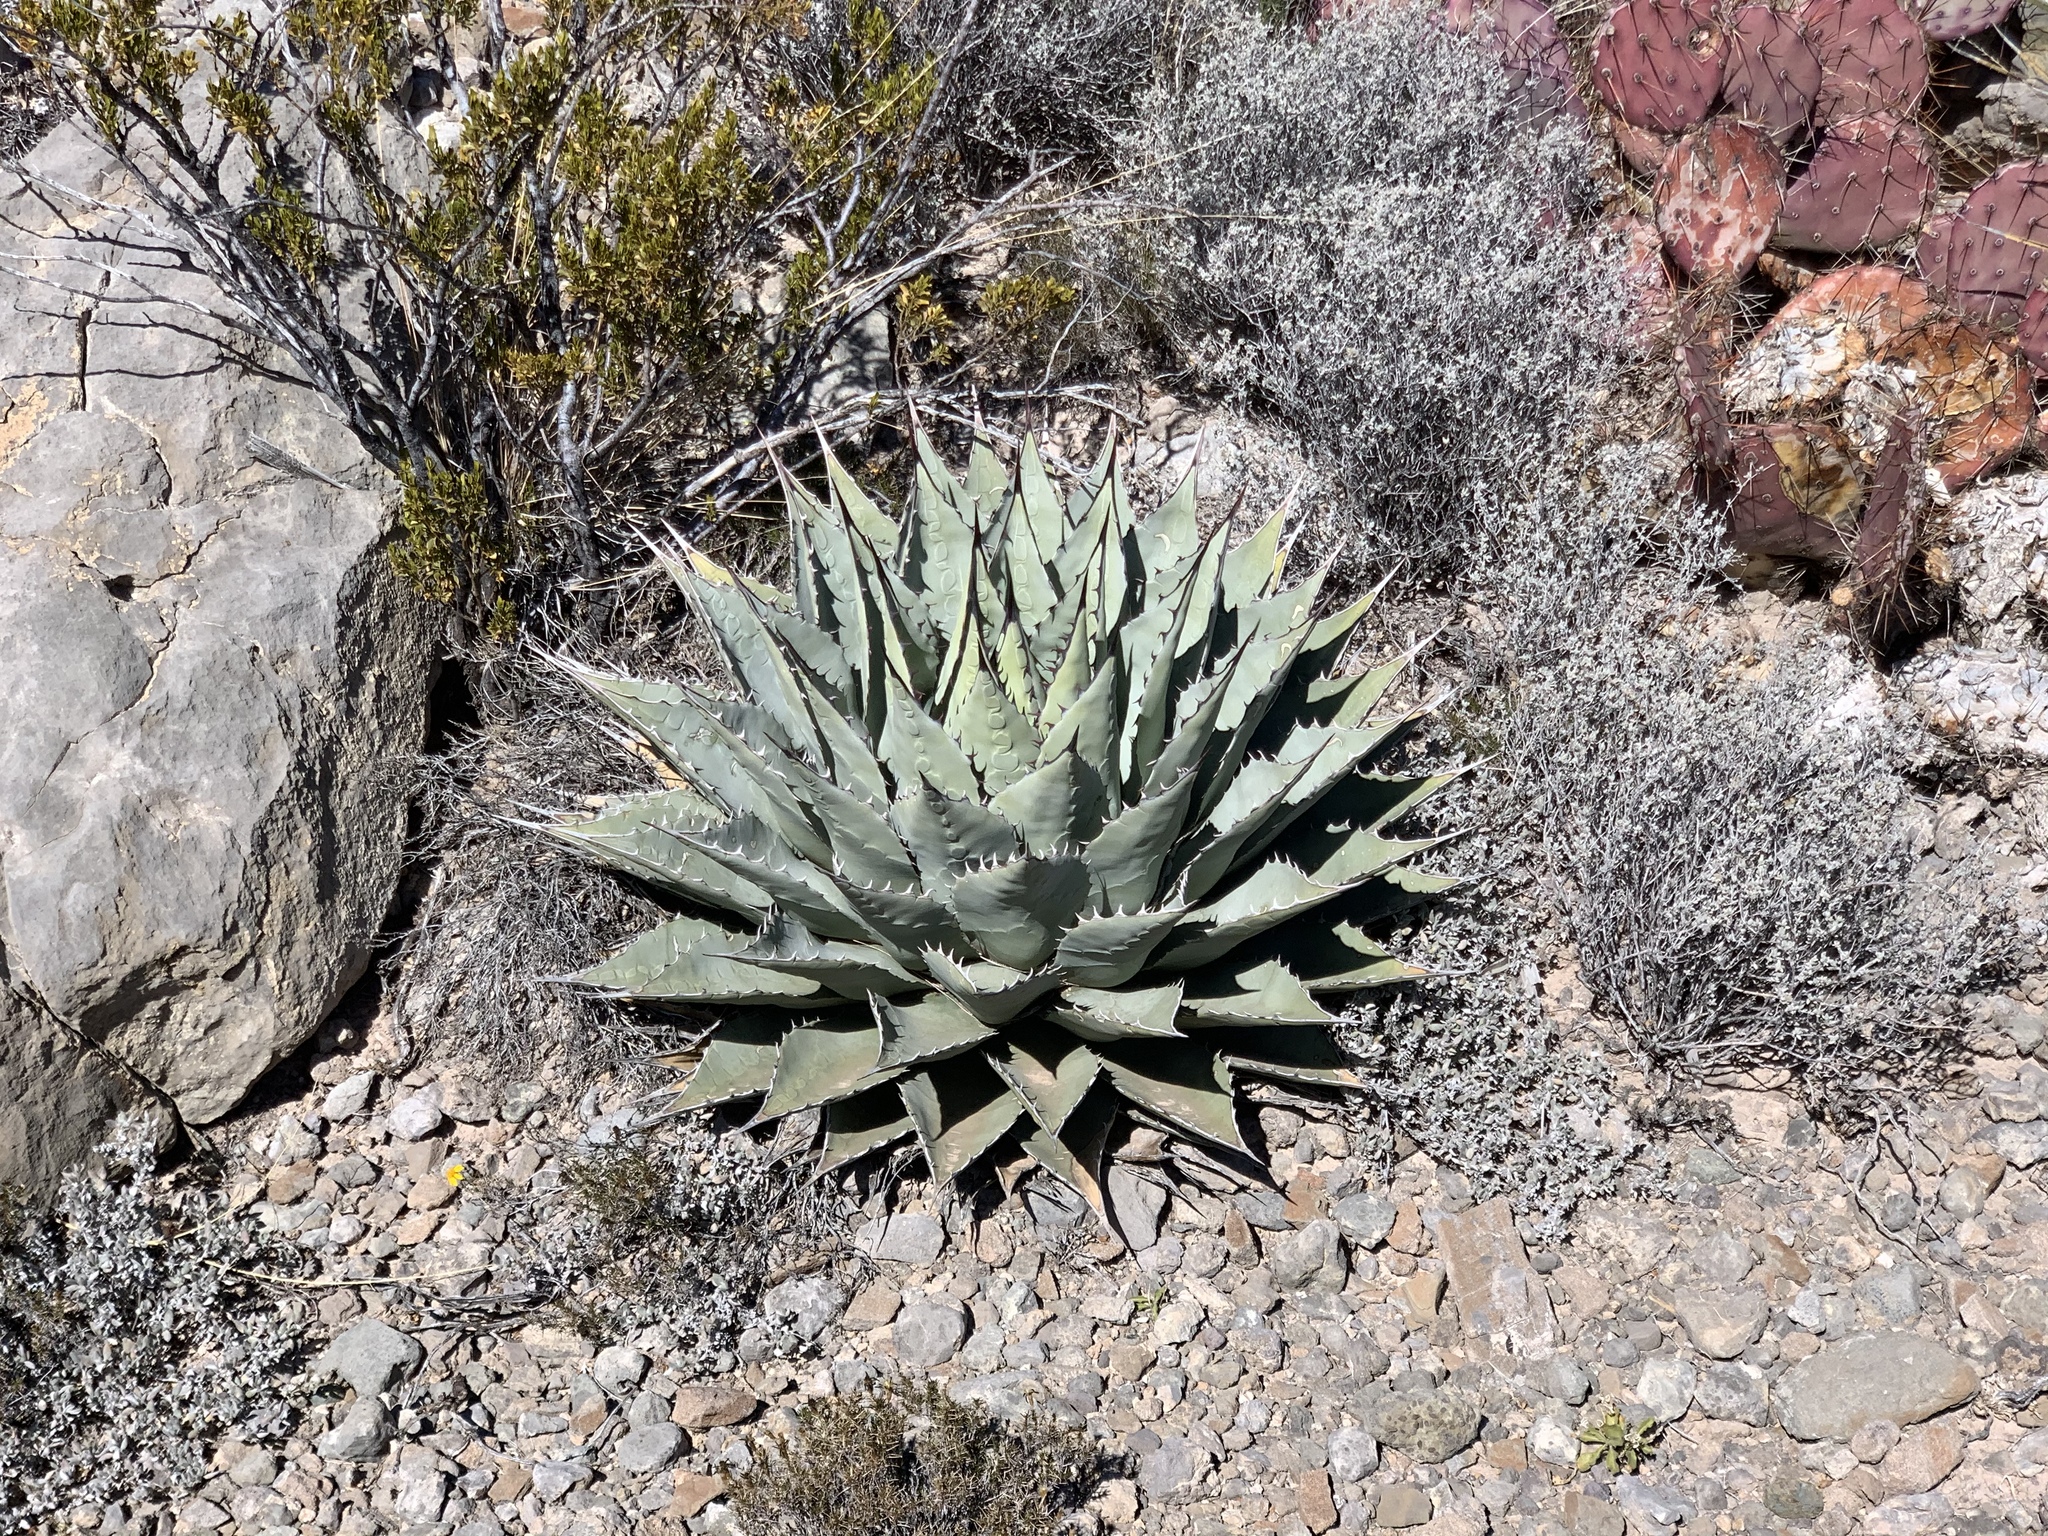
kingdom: Plantae
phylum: Tracheophyta
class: Liliopsida
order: Asparagales
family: Asparagaceae
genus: Agave
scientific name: Agave parryi
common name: Parry's agave
